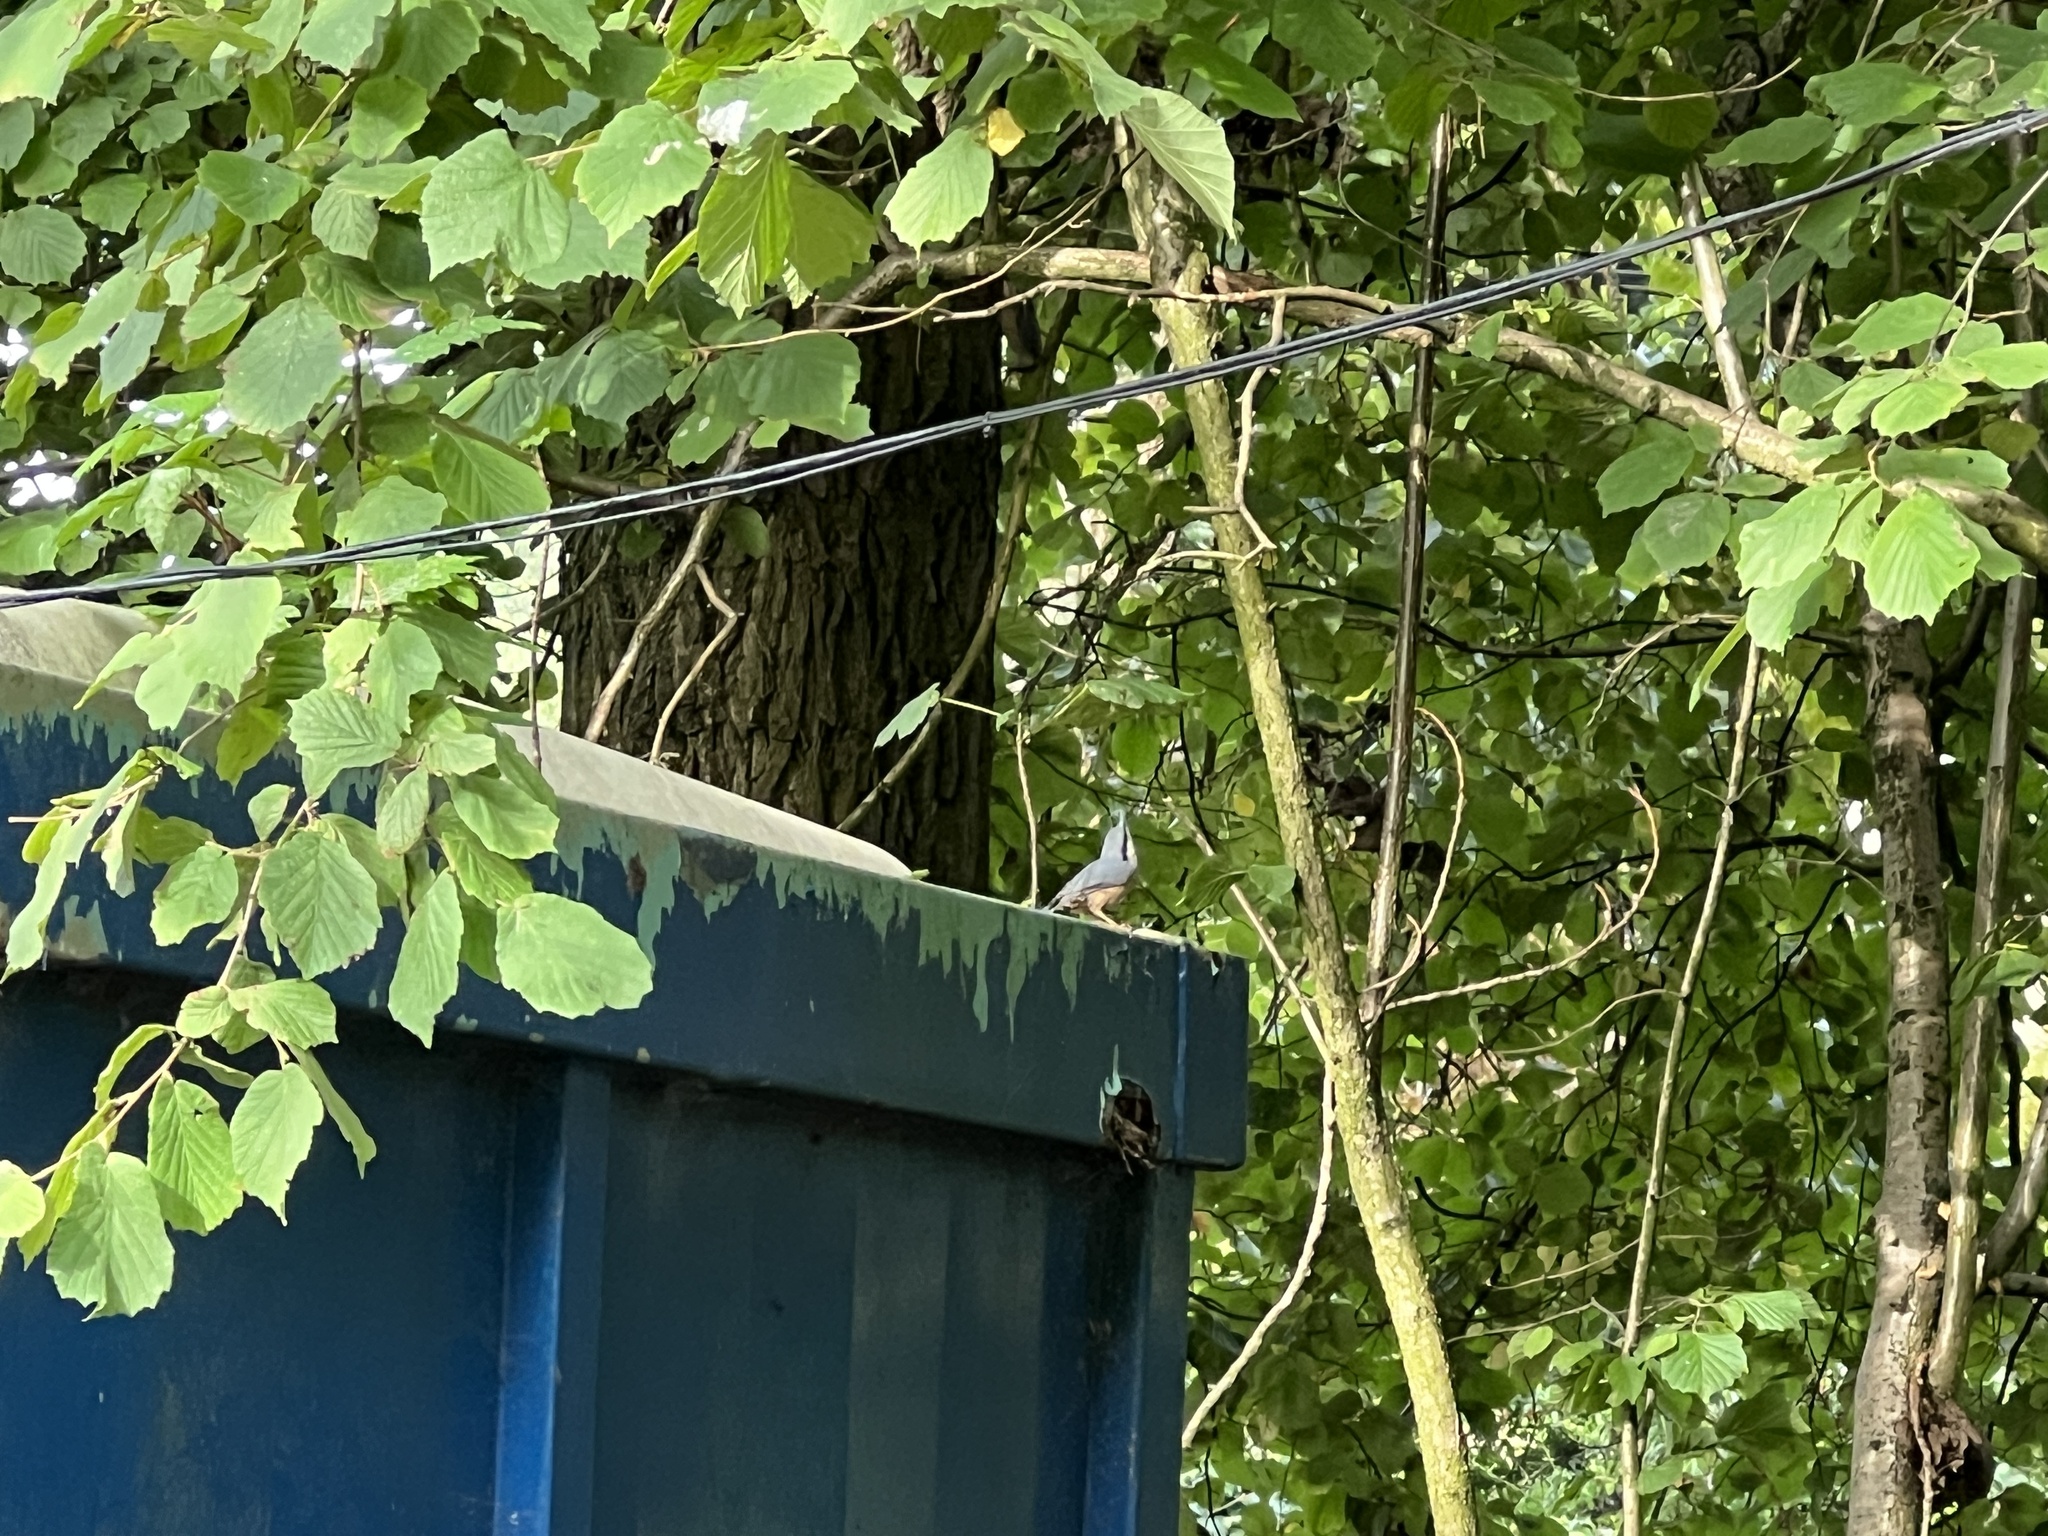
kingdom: Animalia
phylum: Chordata
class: Aves
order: Passeriformes
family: Sittidae
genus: Sitta
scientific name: Sitta europaea
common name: Eurasian nuthatch
